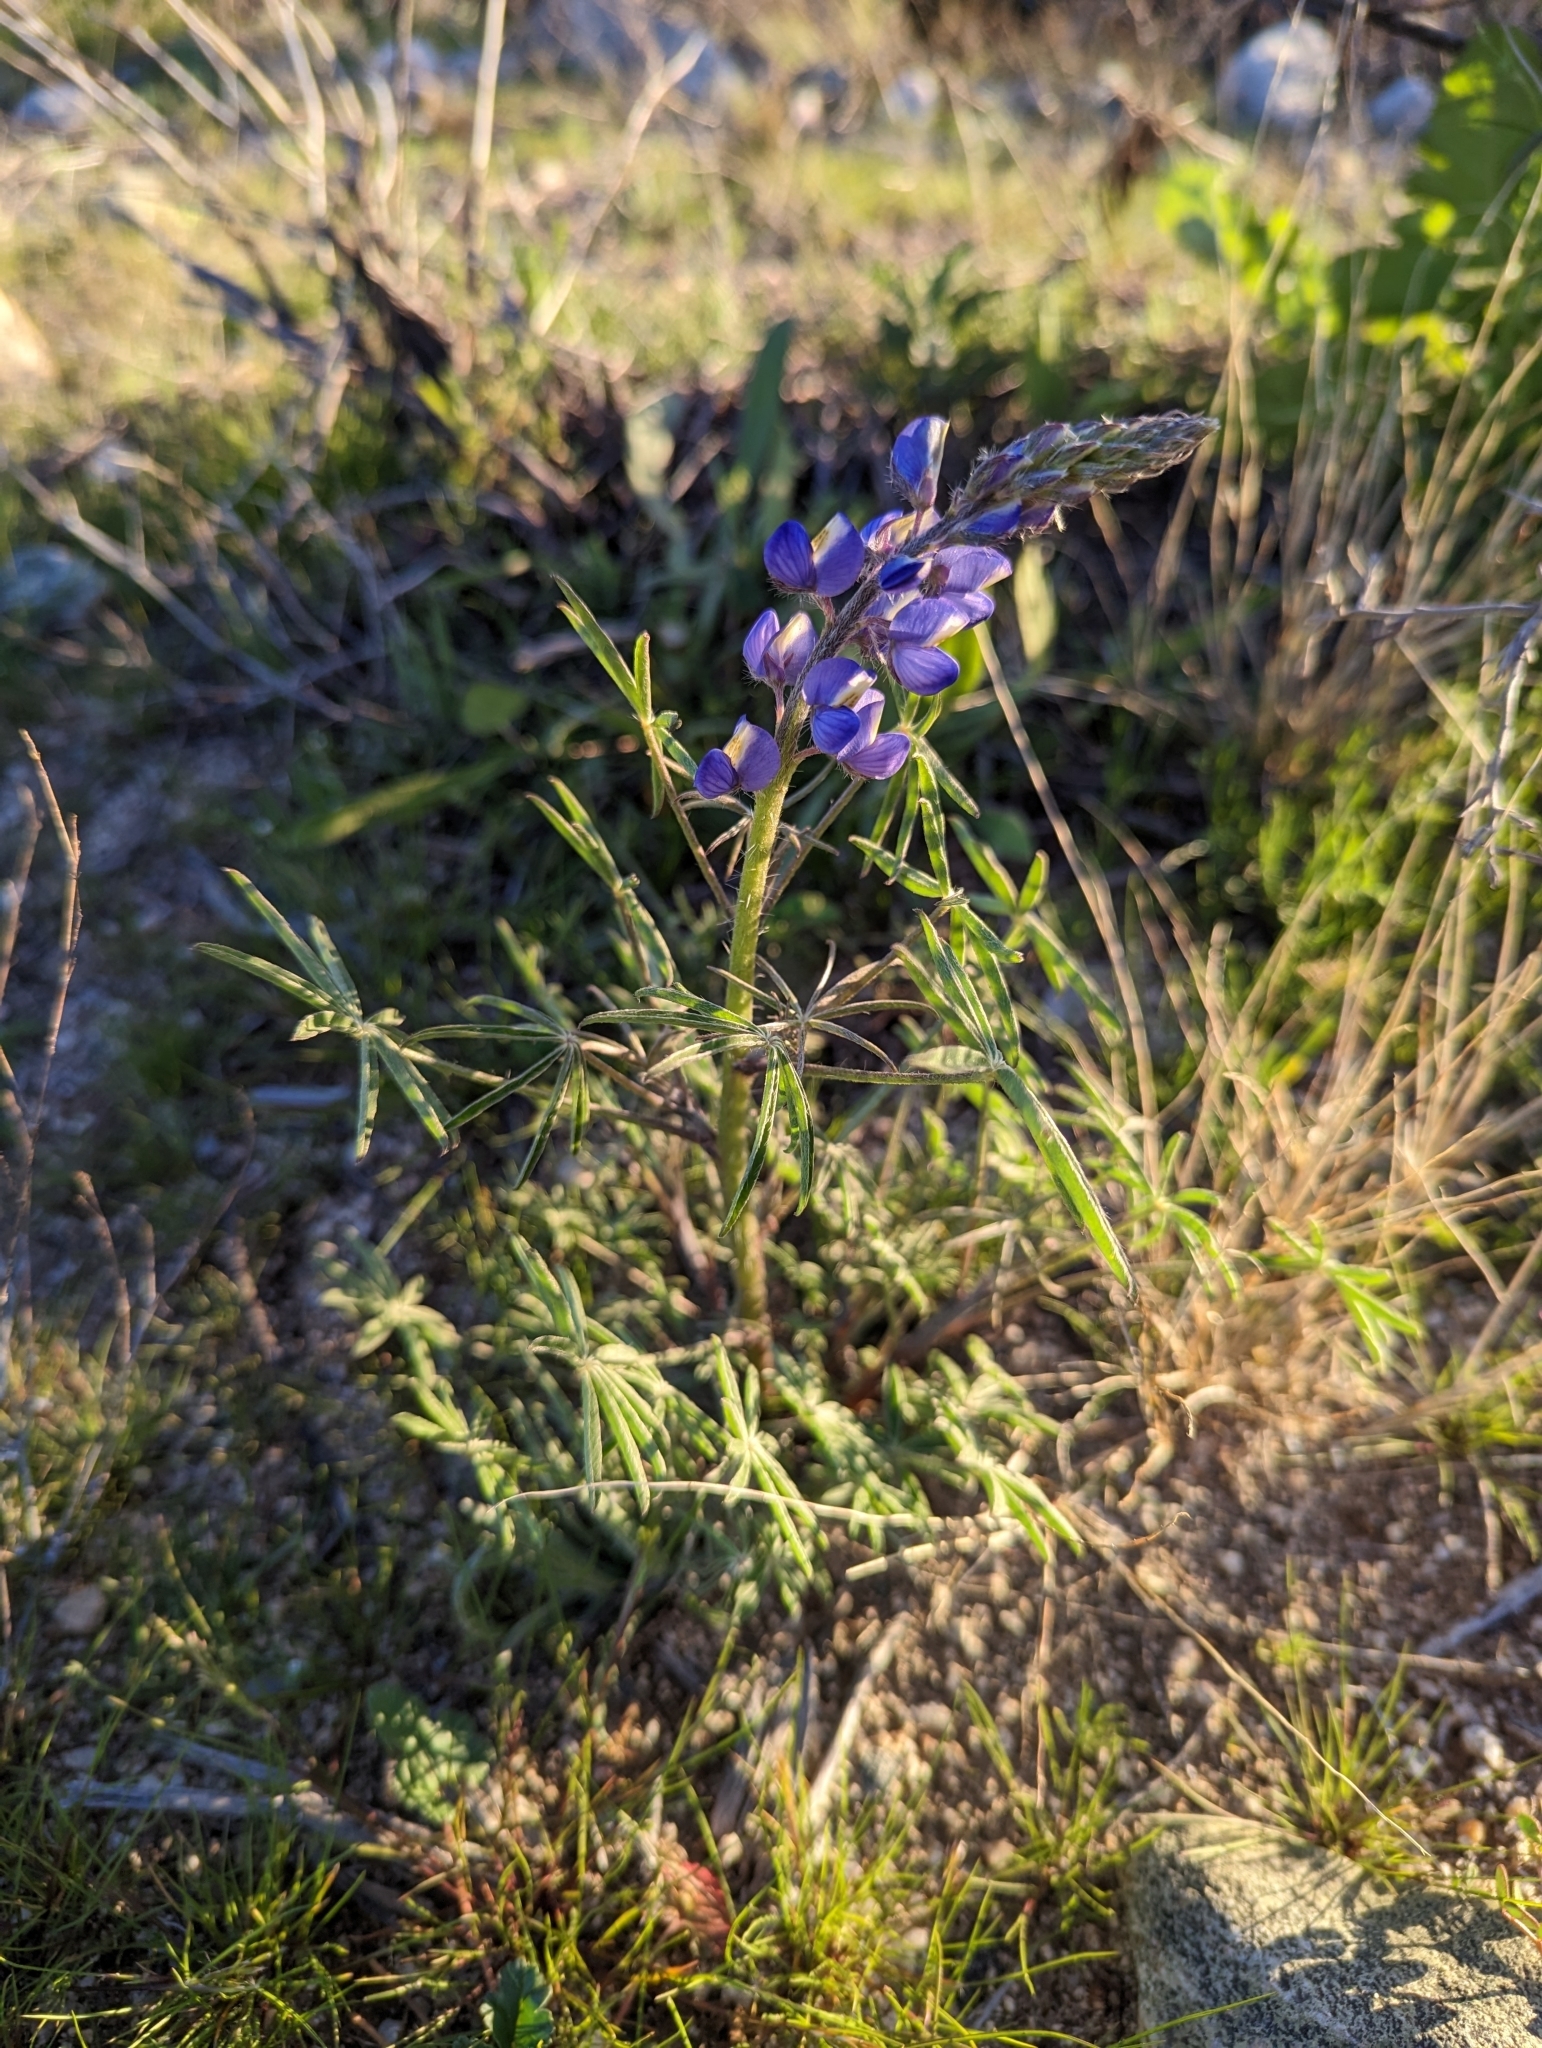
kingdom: Plantae
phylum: Tracheophyta
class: Magnoliopsida
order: Fabales
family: Fabaceae
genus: Lupinus
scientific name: Lupinus sparsiflorus
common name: Coulter's lupine
